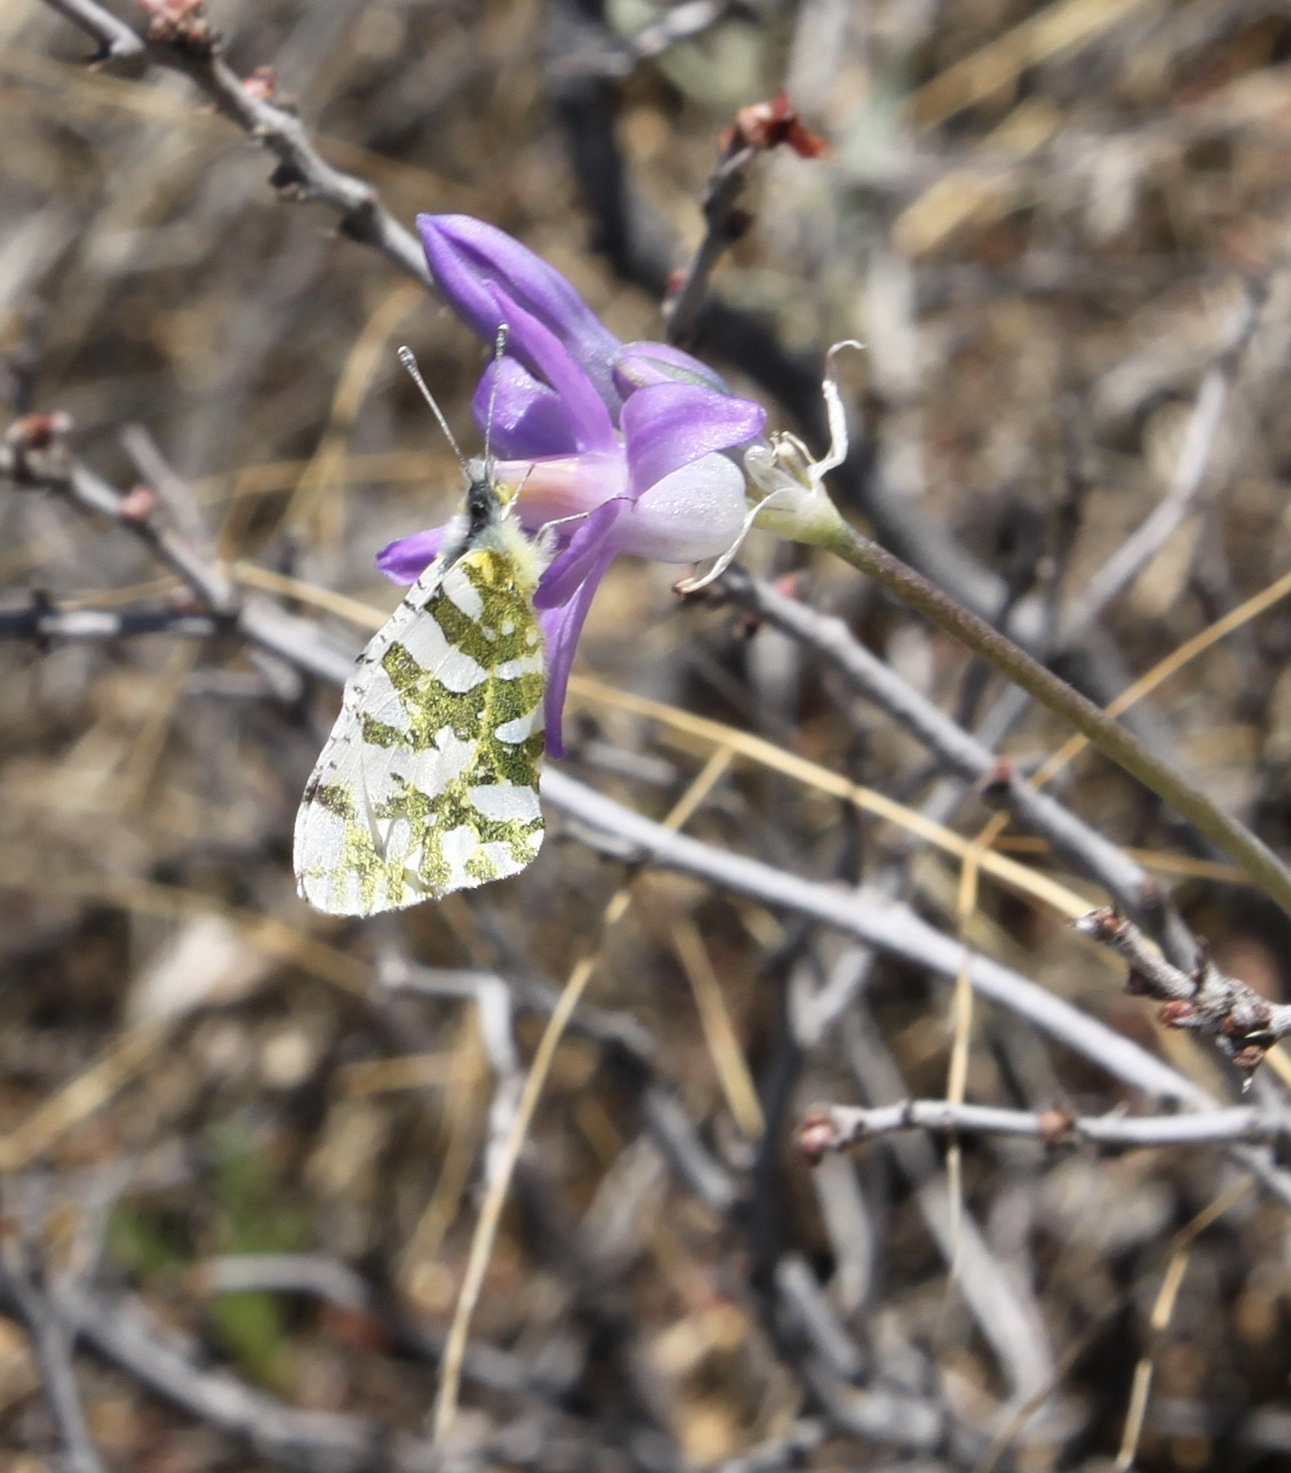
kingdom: Animalia
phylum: Arthropoda
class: Insecta
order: Lepidoptera
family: Pieridae
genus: Euchloe
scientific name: Euchloe lotta
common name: Desert marble
